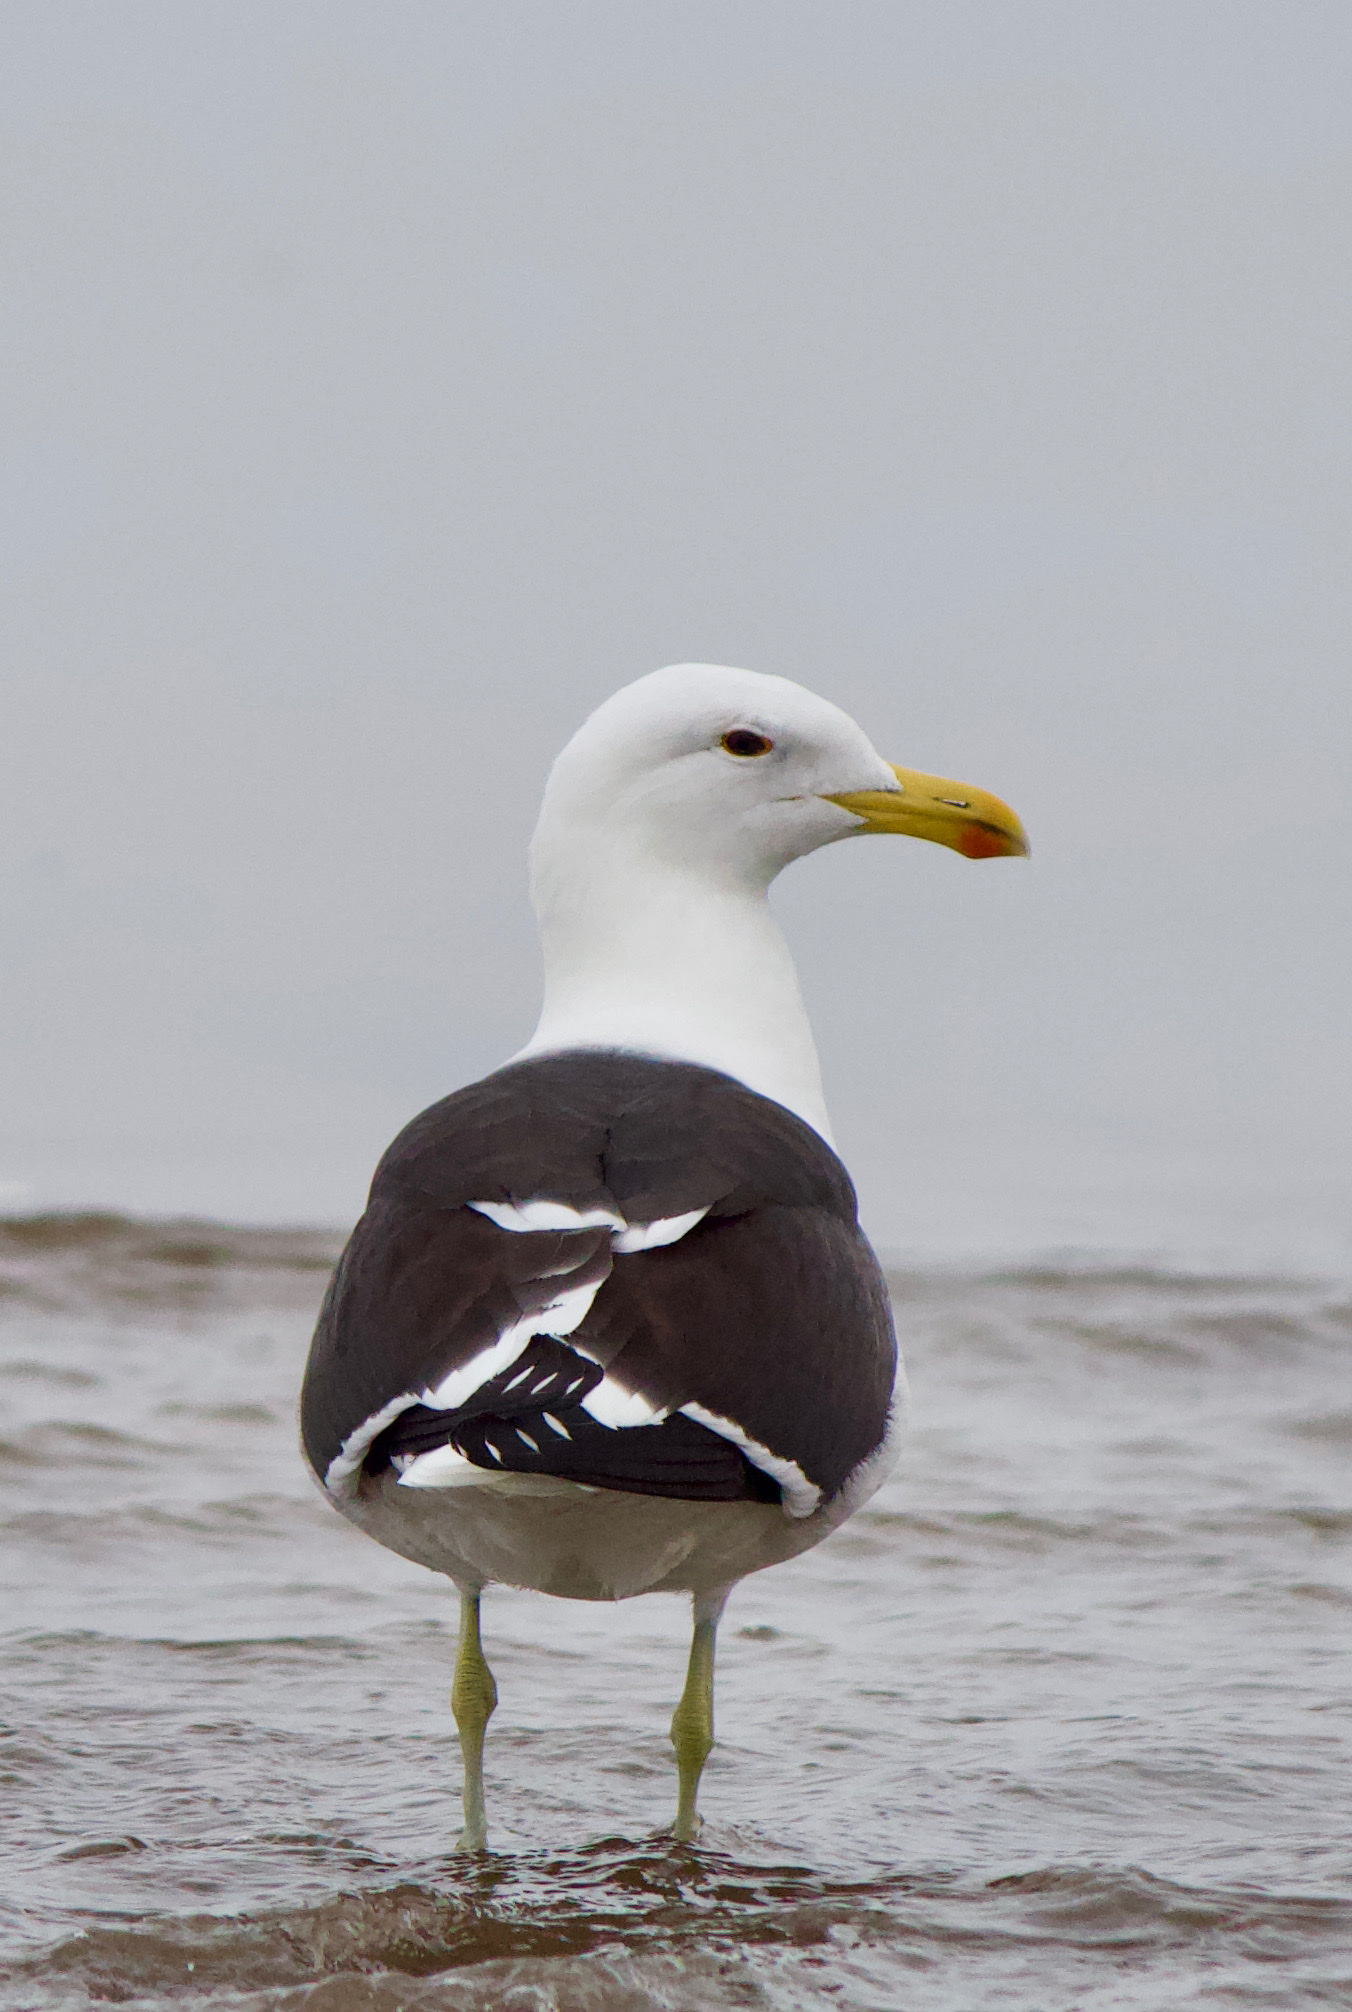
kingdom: Animalia
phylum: Chordata
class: Aves
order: Charadriiformes
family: Laridae
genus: Larus
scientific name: Larus dominicanus
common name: Kelp gull
